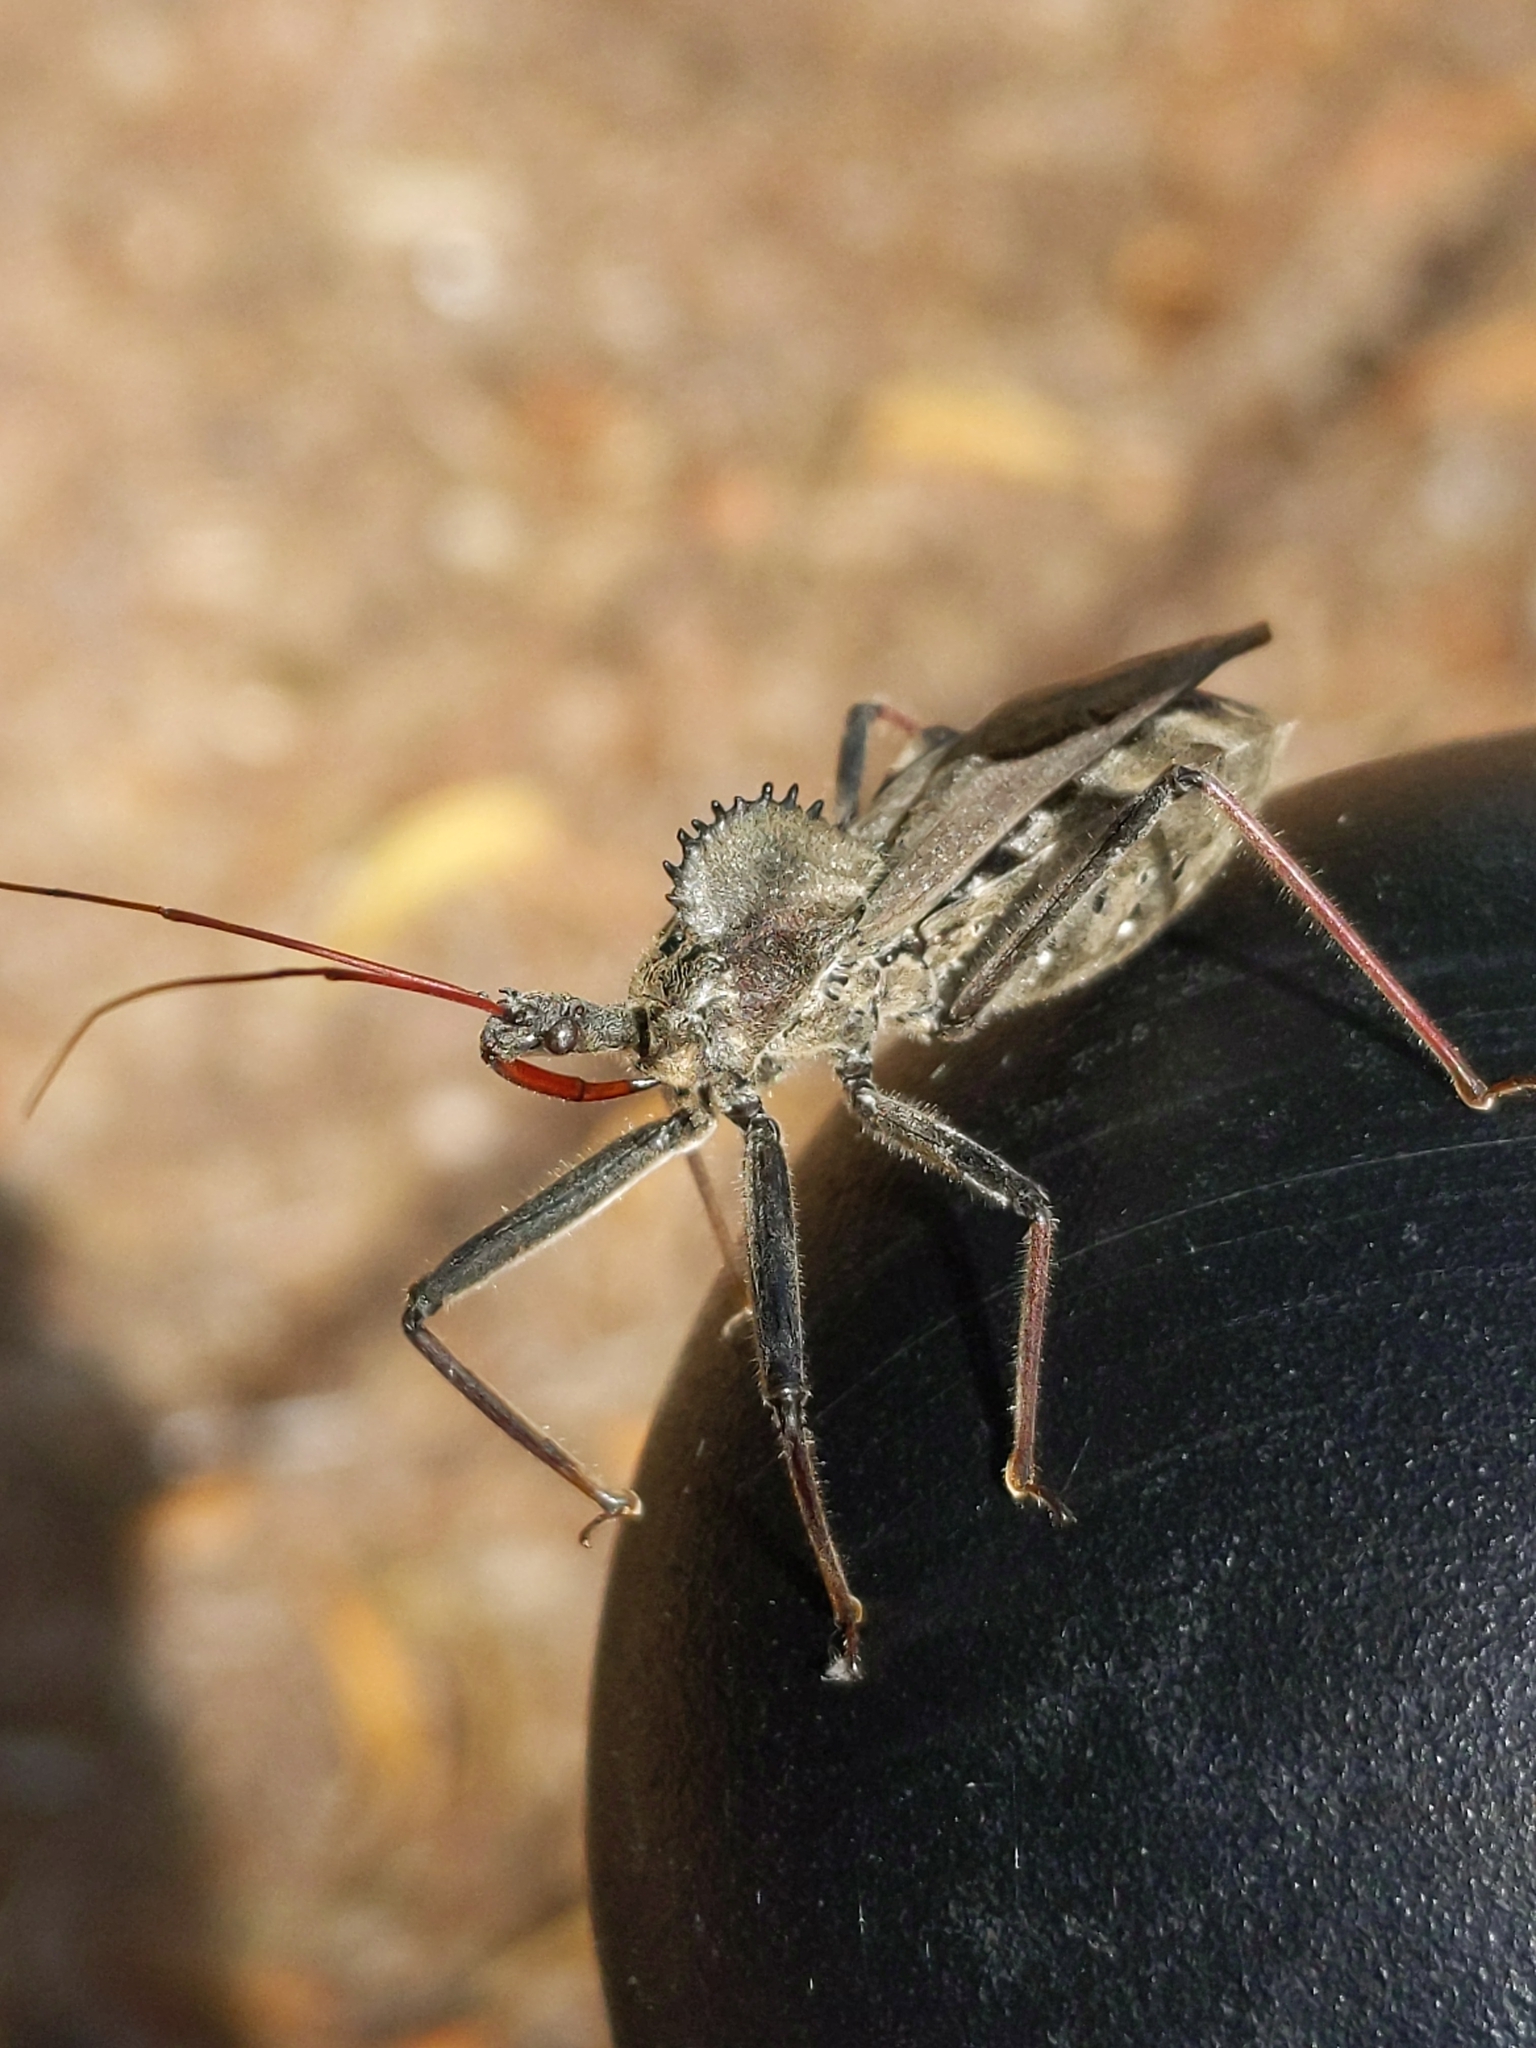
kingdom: Animalia
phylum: Arthropoda
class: Insecta
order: Hemiptera
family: Reduviidae
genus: Arilus
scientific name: Arilus cristatus
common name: North american wheel bug
